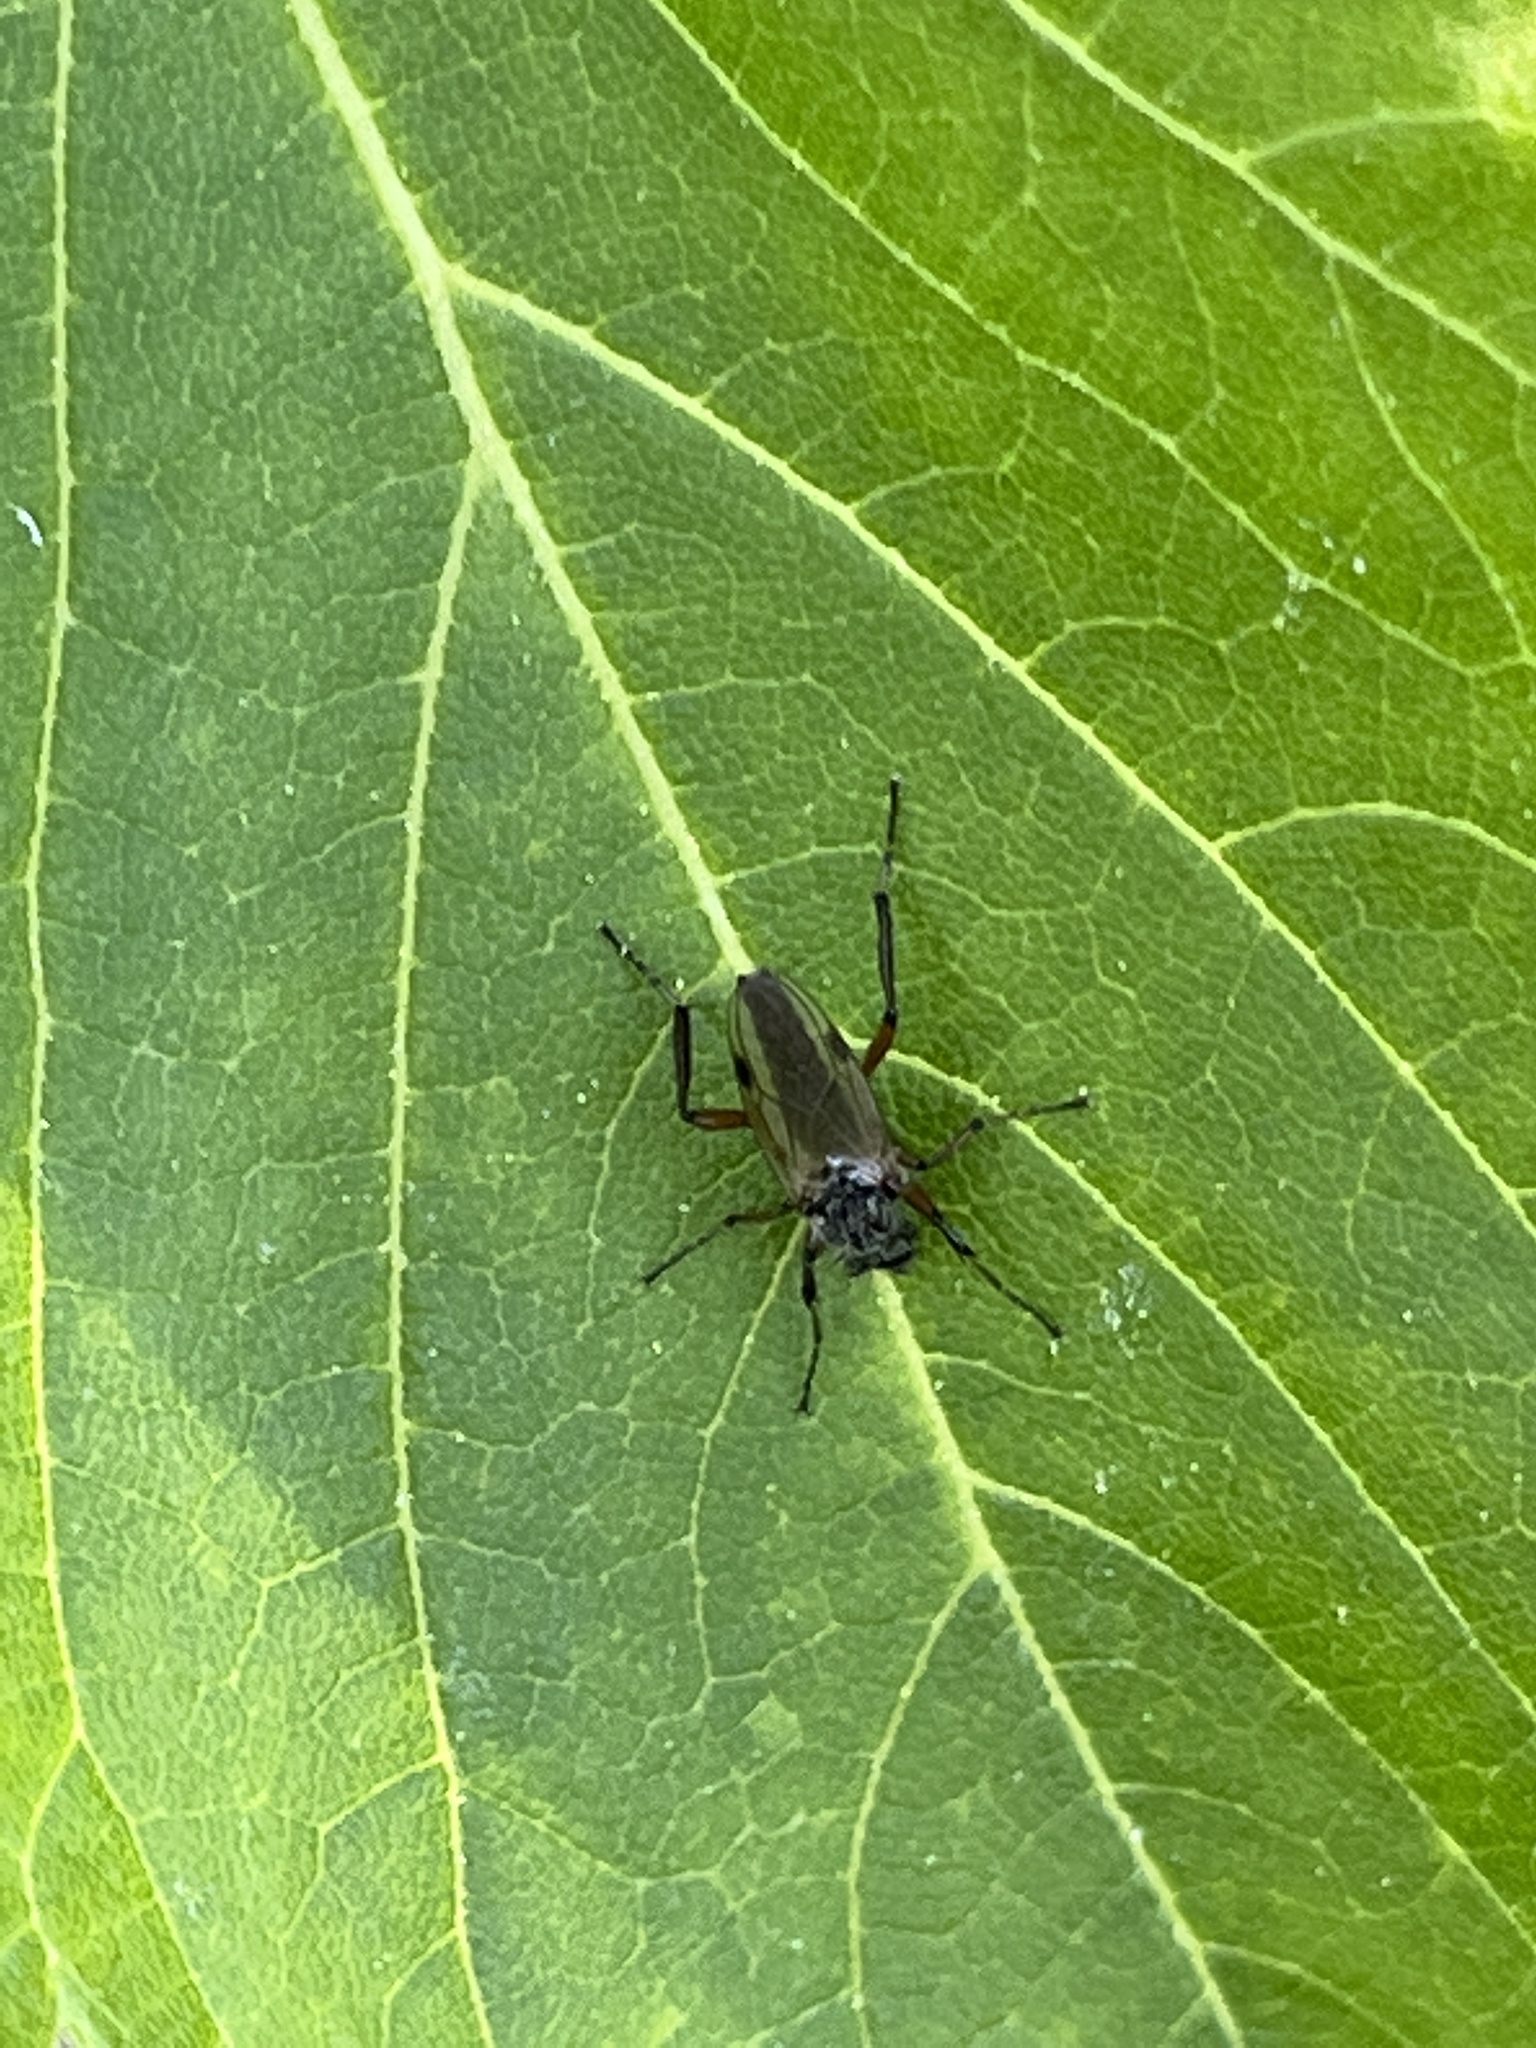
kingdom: Animalia
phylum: Arthropoda
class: Insecta
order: Diptera
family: Bibionidae
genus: Bibio
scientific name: Bibio articulatus
